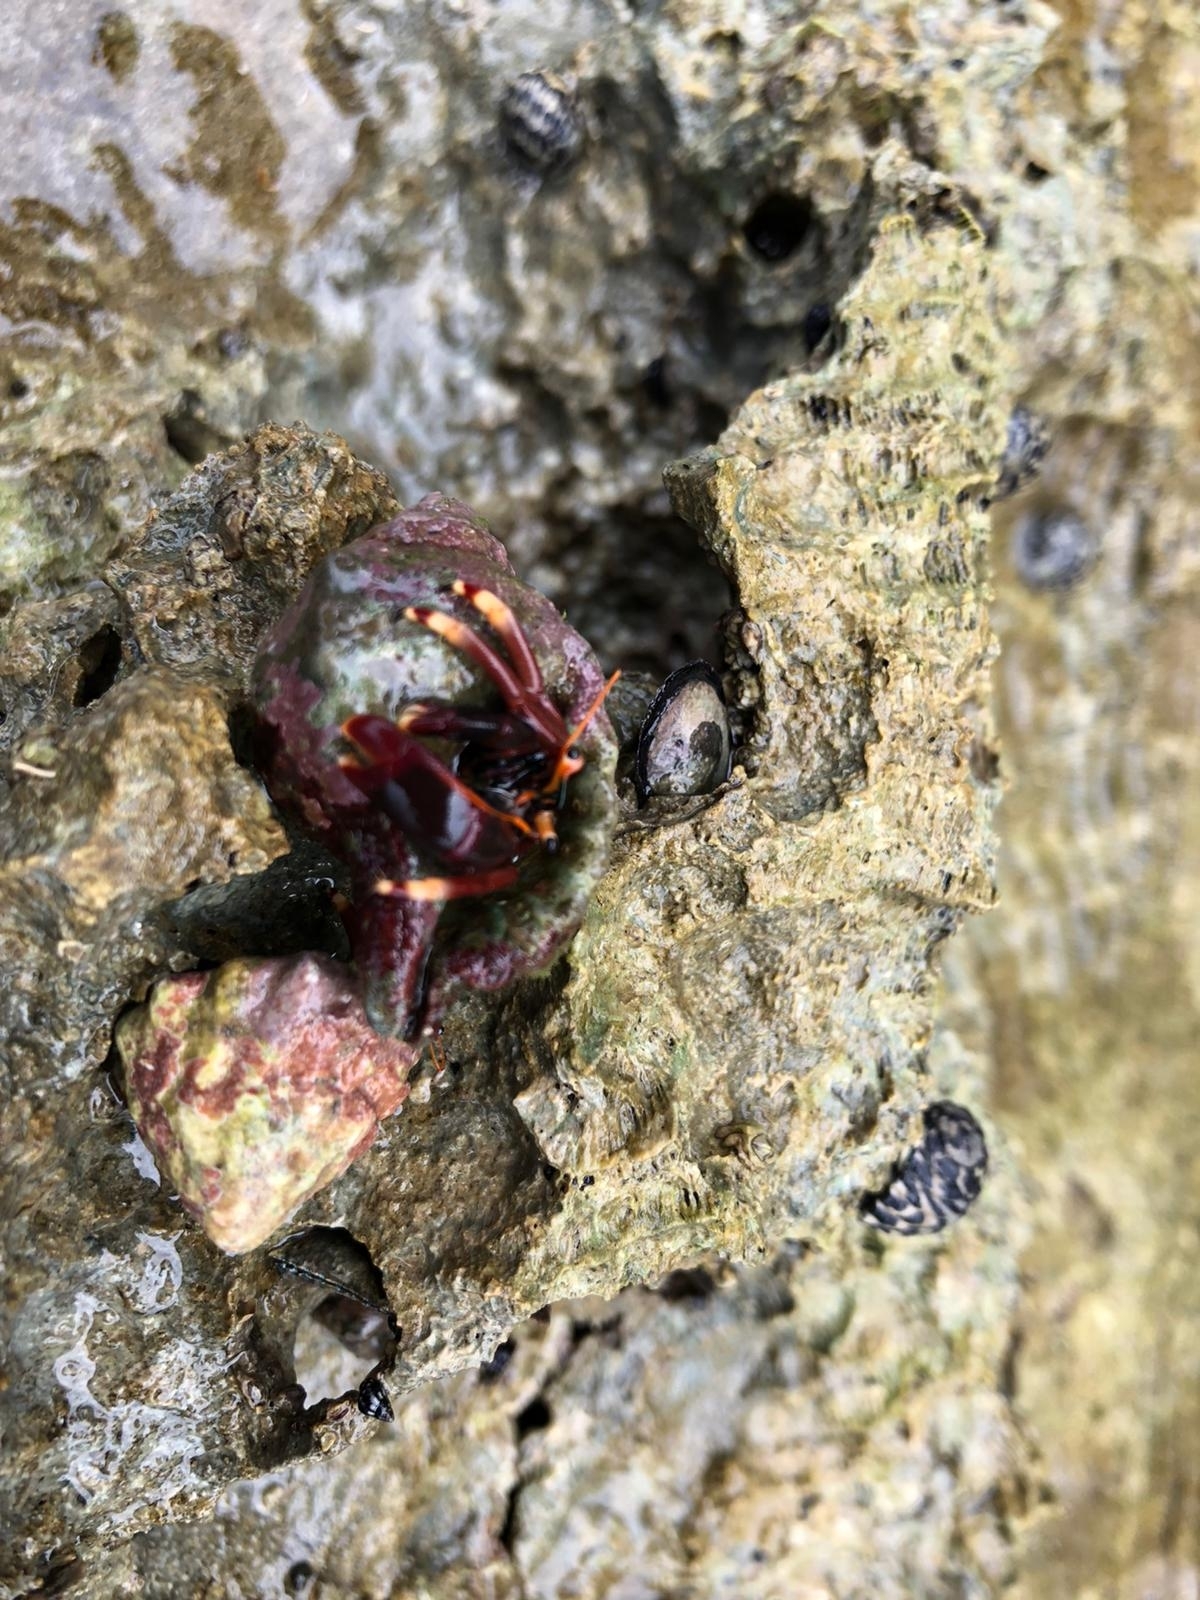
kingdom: Animalia
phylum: Arthropoda
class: Malacostraca
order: Decapoda
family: Diogenidae
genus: Calcinus
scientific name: Calcinus tibicen
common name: Orangeclaw hermit
